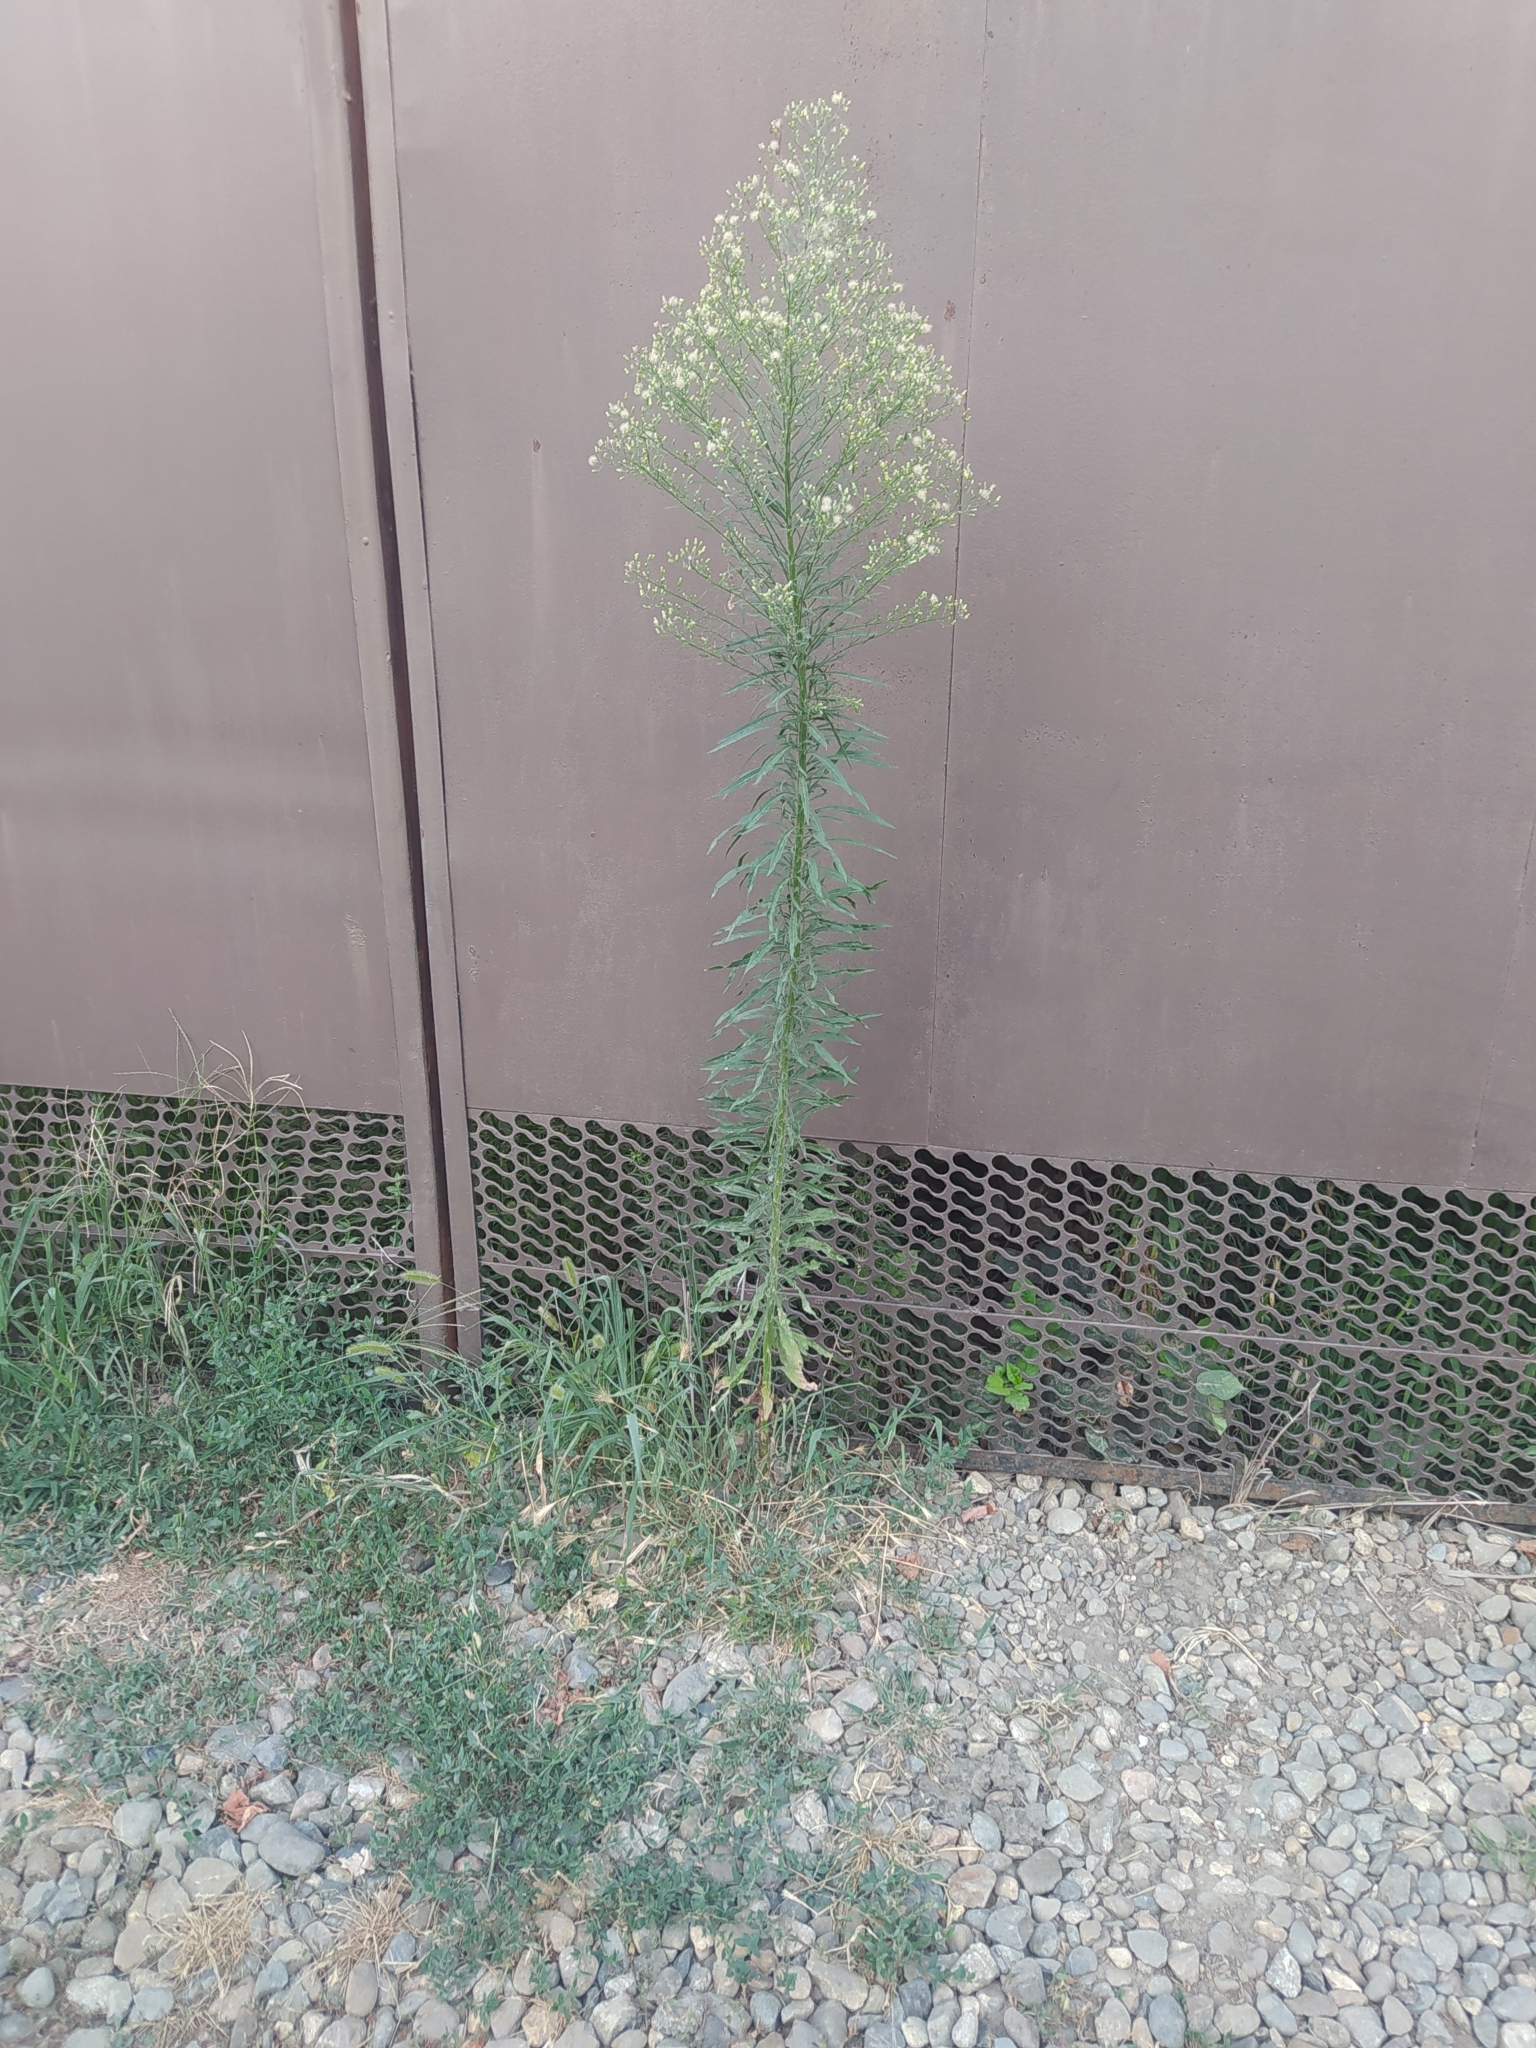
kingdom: Plantae
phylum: Tracheophyta
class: Magnoliopsida
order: Asterales
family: Asteraceae
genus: Erigeron
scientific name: Erigeron canadensis
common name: Canadian fleabane
